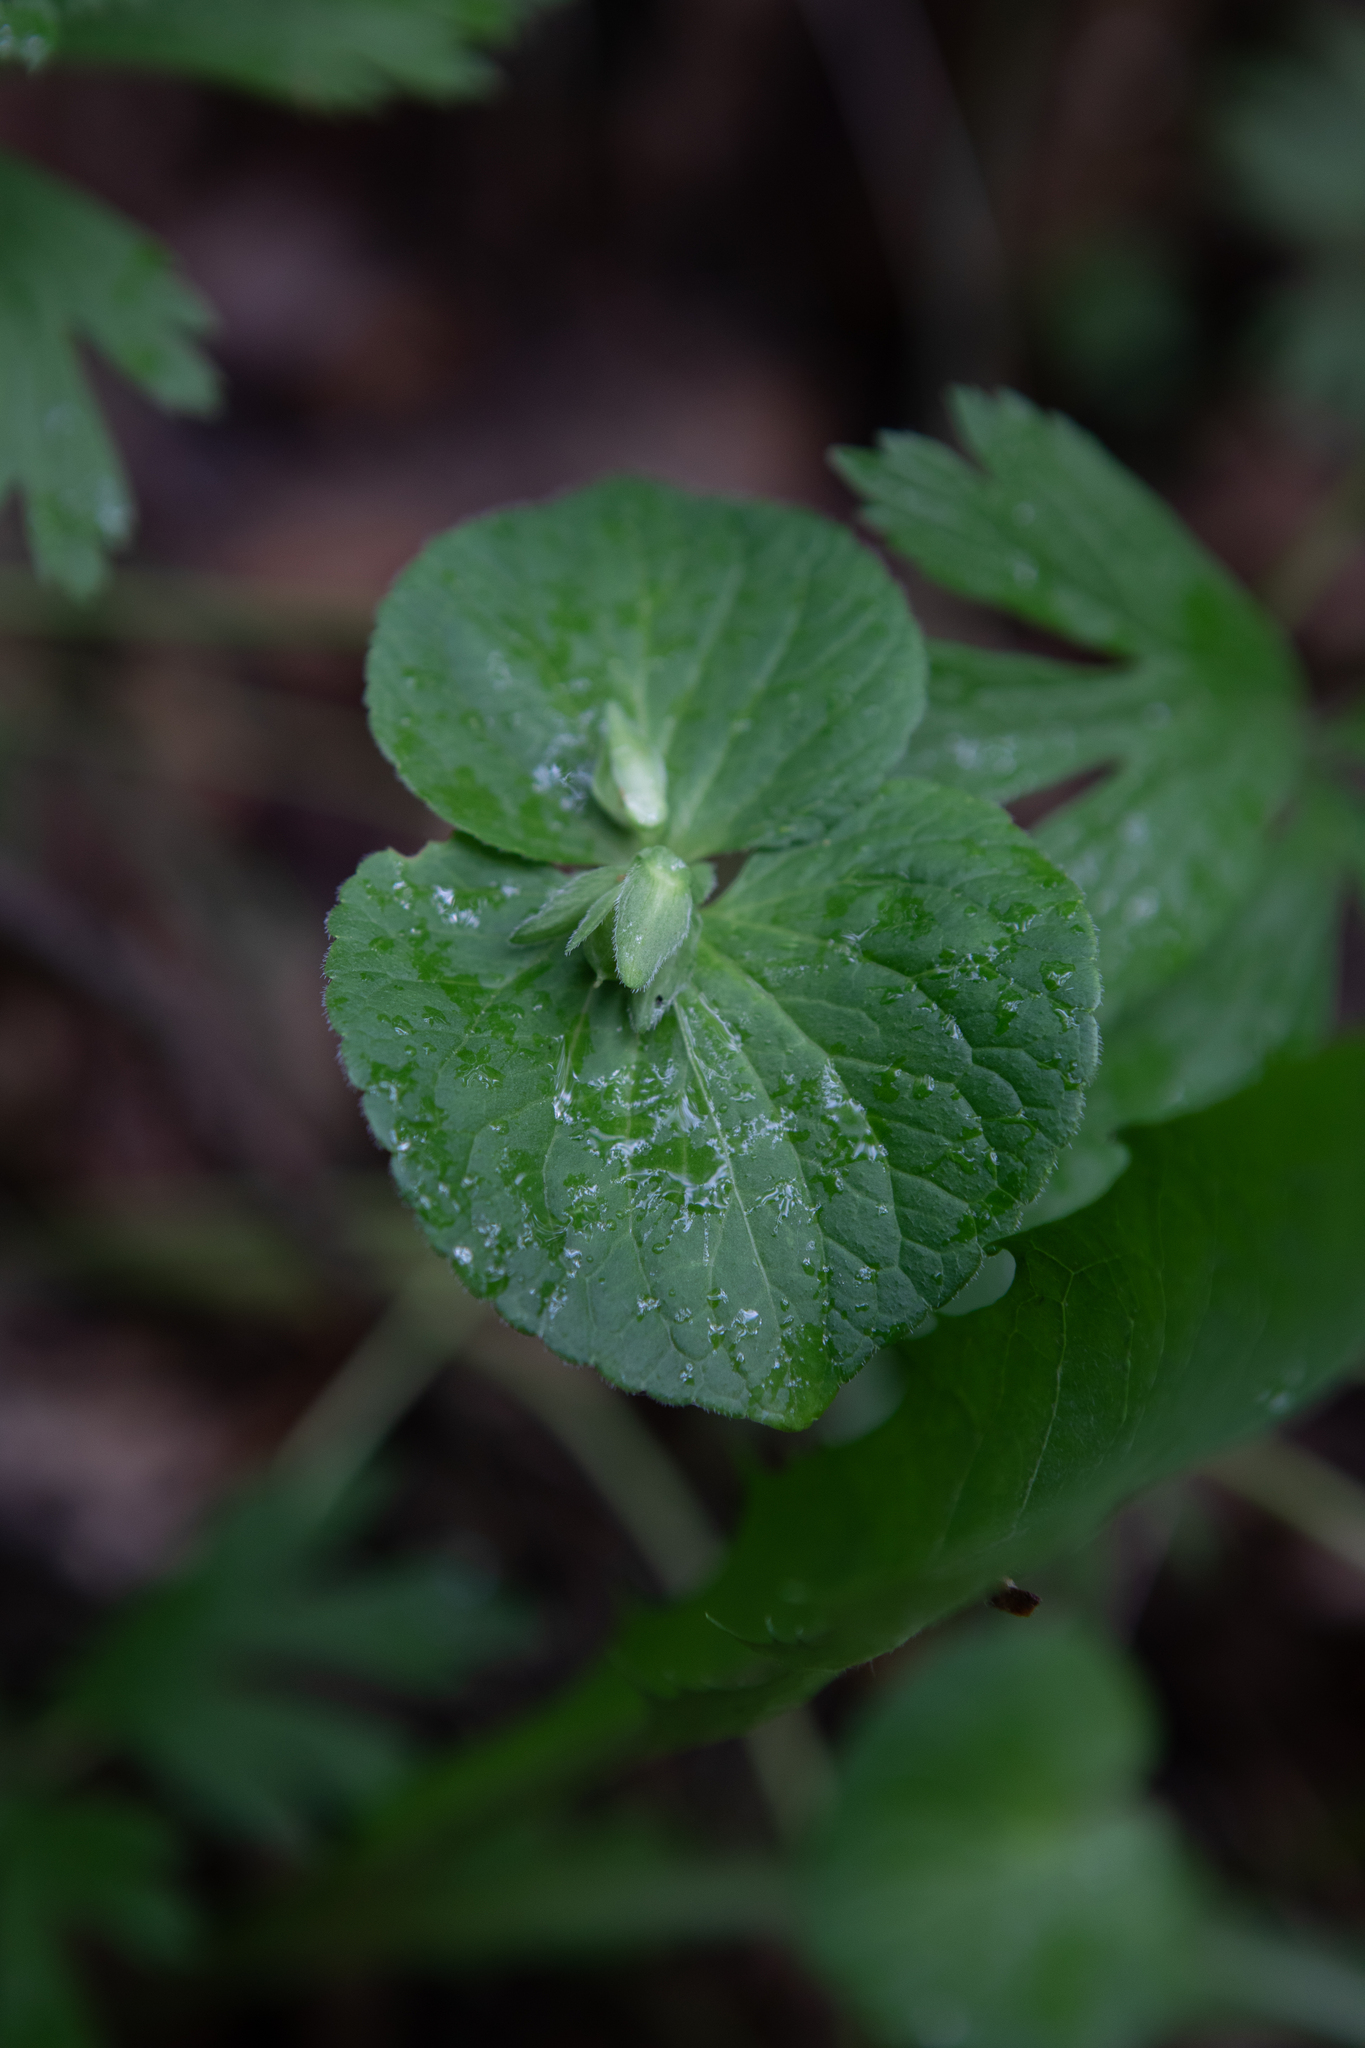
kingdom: Plantae
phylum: Tracheophyta
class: Magnoliopsida
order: Malpighiales
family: Violaceae
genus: Viola
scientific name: Viola mirabilis
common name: Wonder violet
